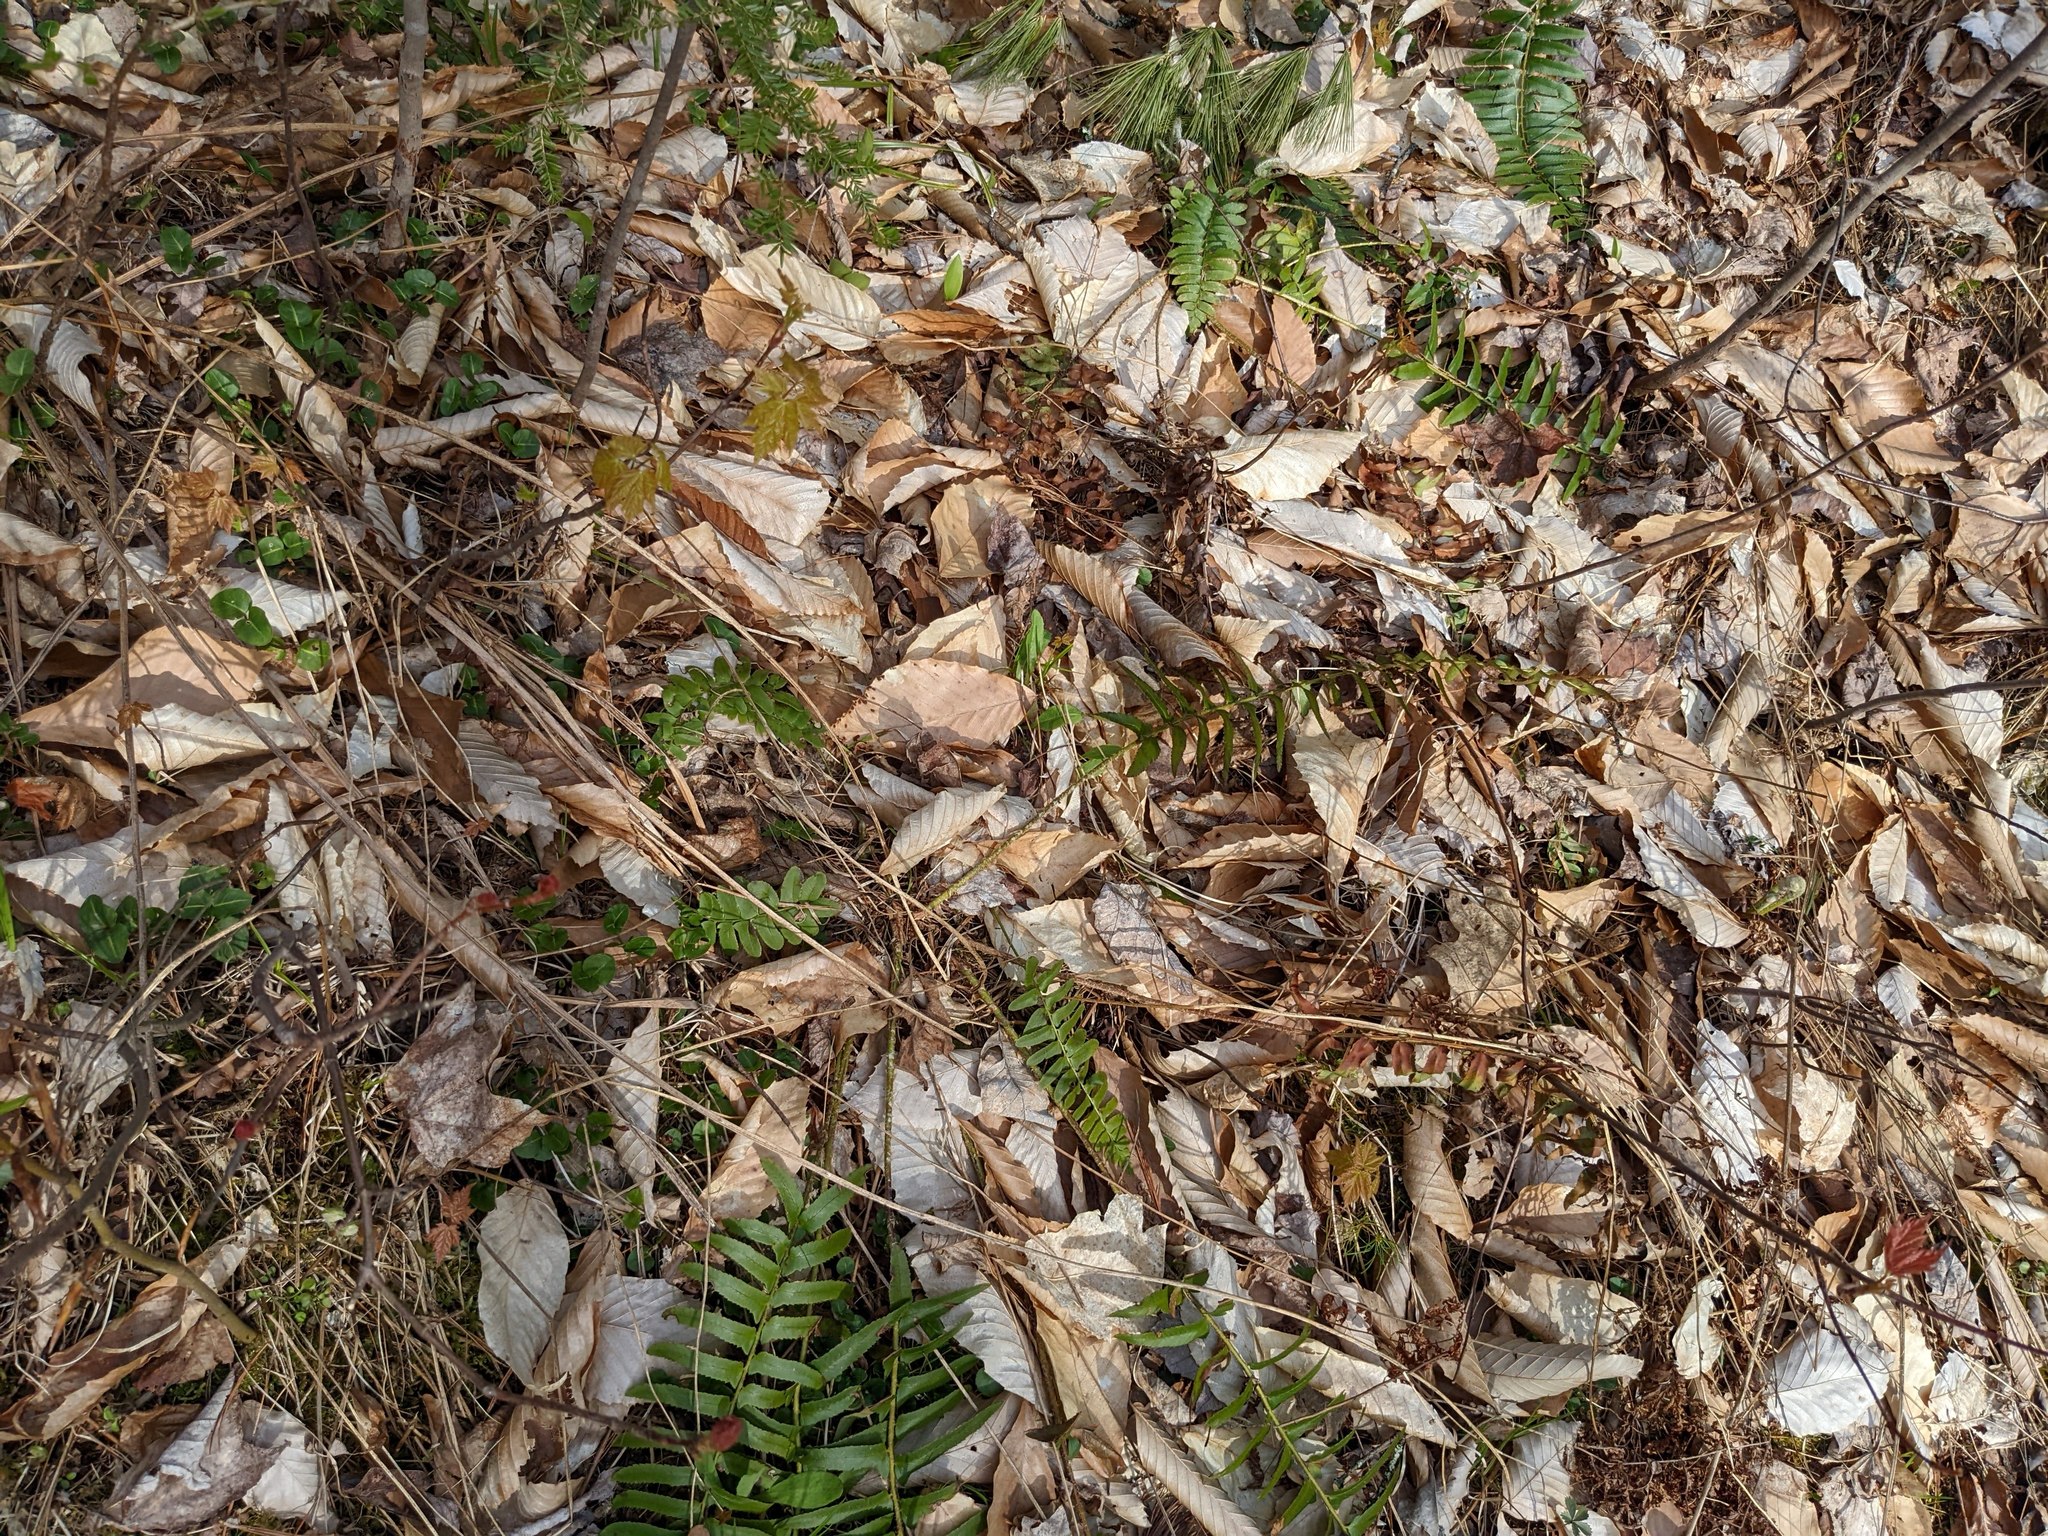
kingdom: Plantae
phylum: Tracheophyta
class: Polypodiopsida
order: Polypodiales
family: Dryopteridaceae
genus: Polystichum
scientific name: Polystichum acrostichoides
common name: Christmas fern
